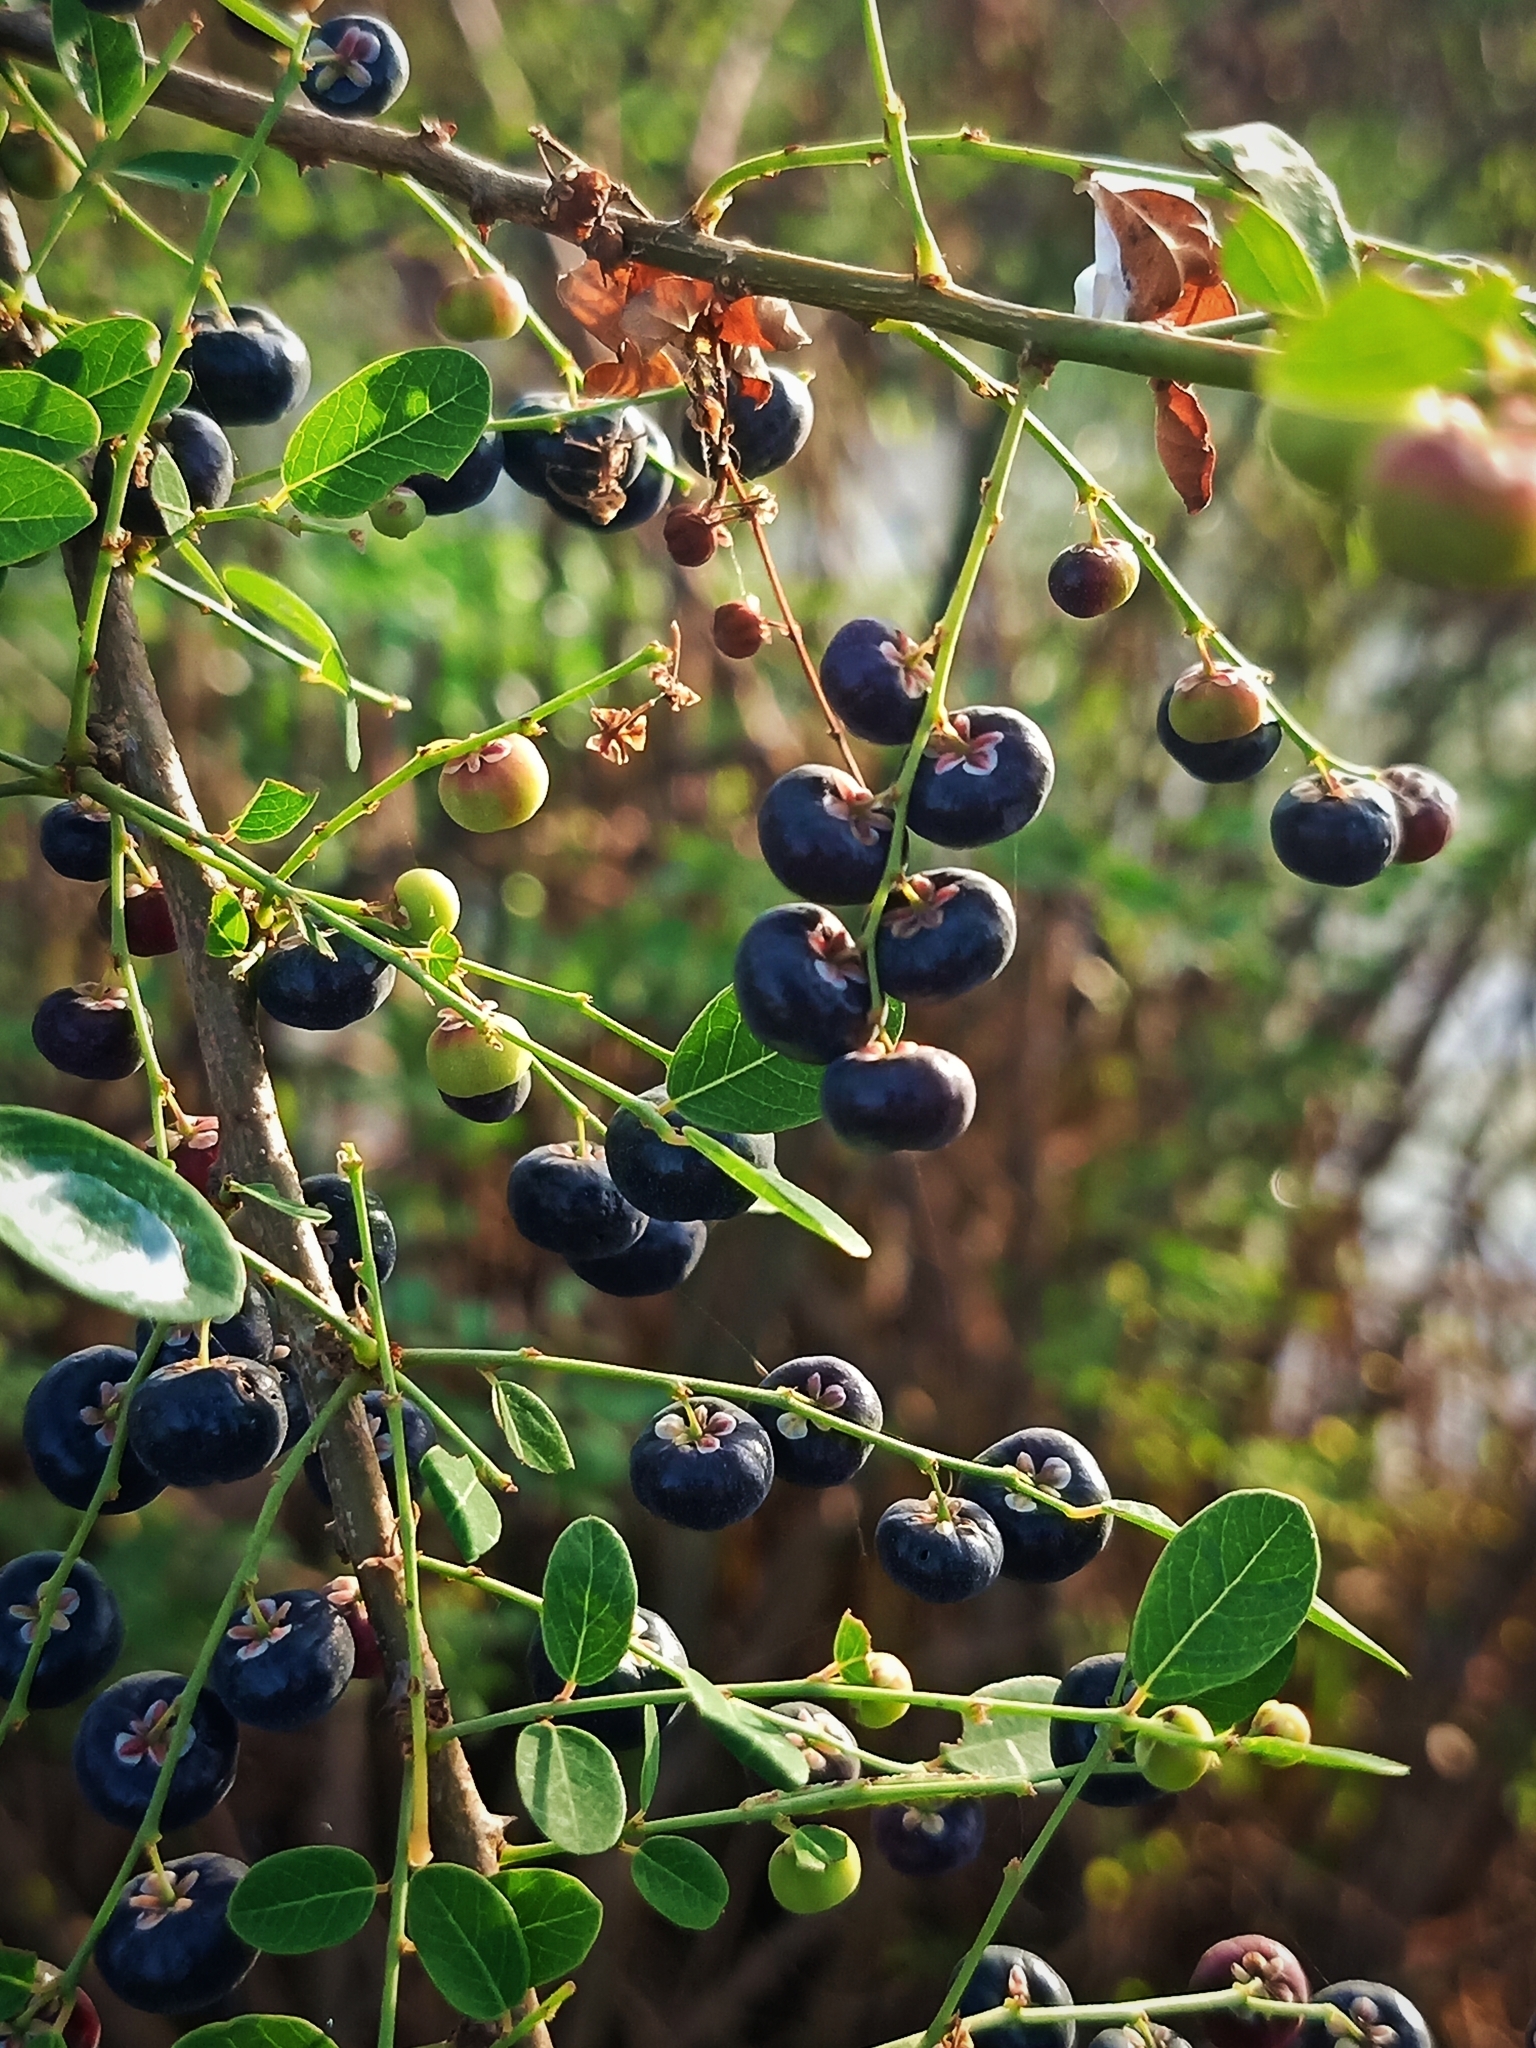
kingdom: Plantae
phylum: Tracheophyta
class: Magnoliopsida
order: Malpighiales
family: Phyllanthaceae
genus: Phyllanthus
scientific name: Phyllanthus reticulatus
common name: Potato bush
